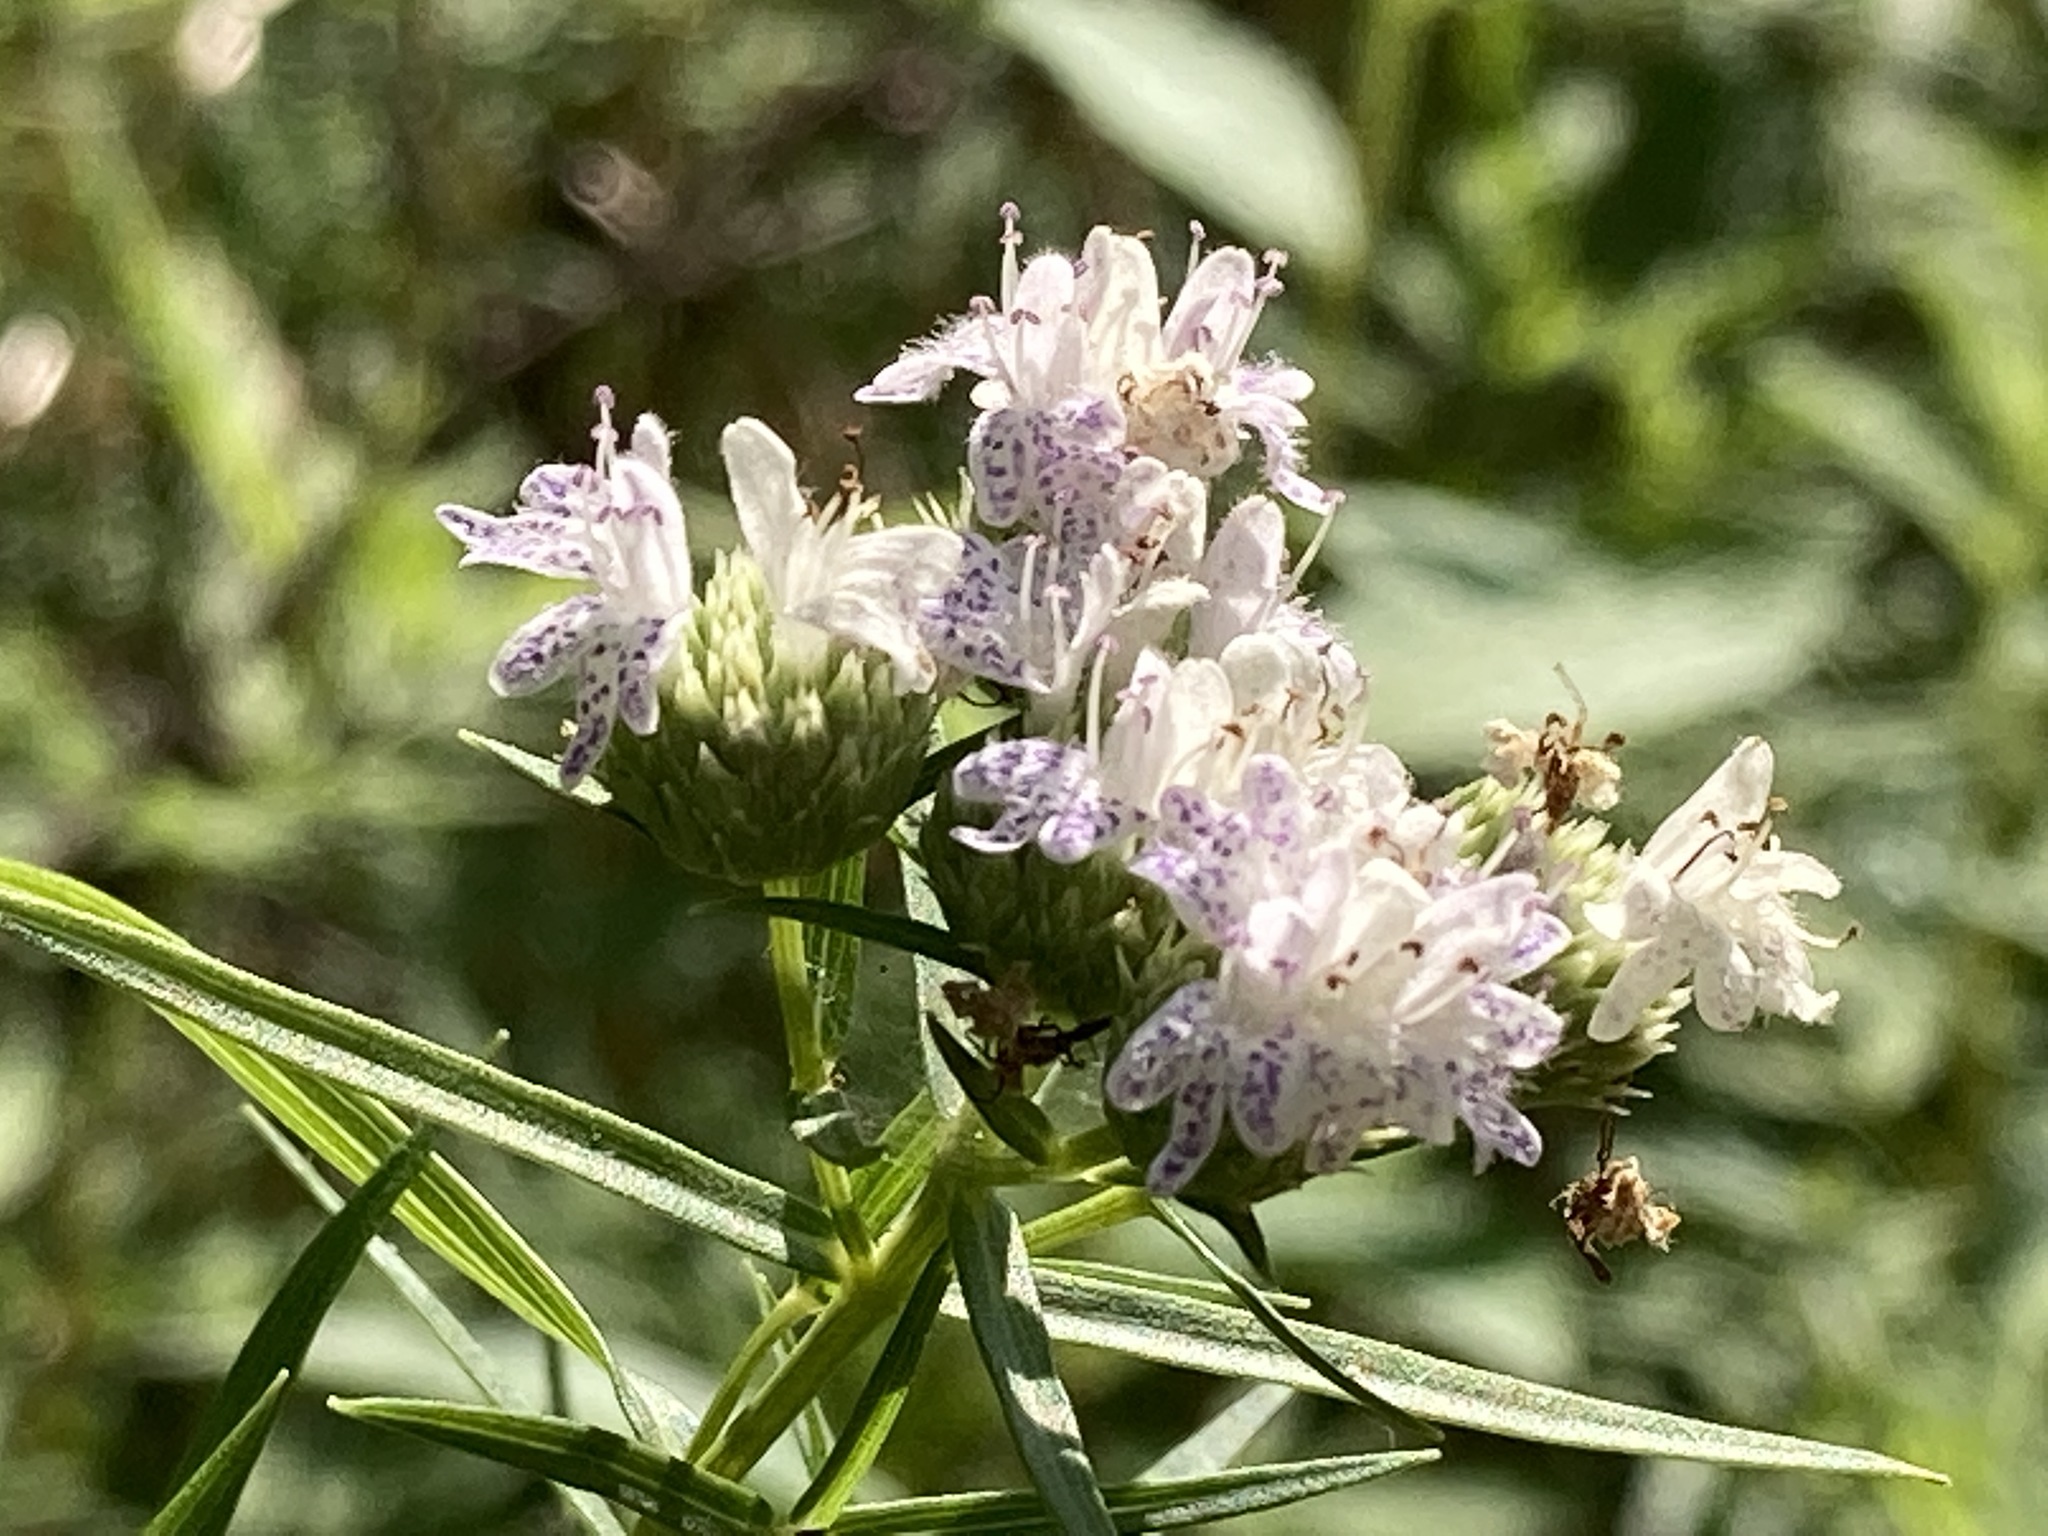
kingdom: Plantae
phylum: Tracheophyta
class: Magnoliopsida
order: Lamiales
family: Lamiaceae
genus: Pycnanthemum
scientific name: Pycnanthemum tenuifolium
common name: Narrow-leaf mountain-mint
